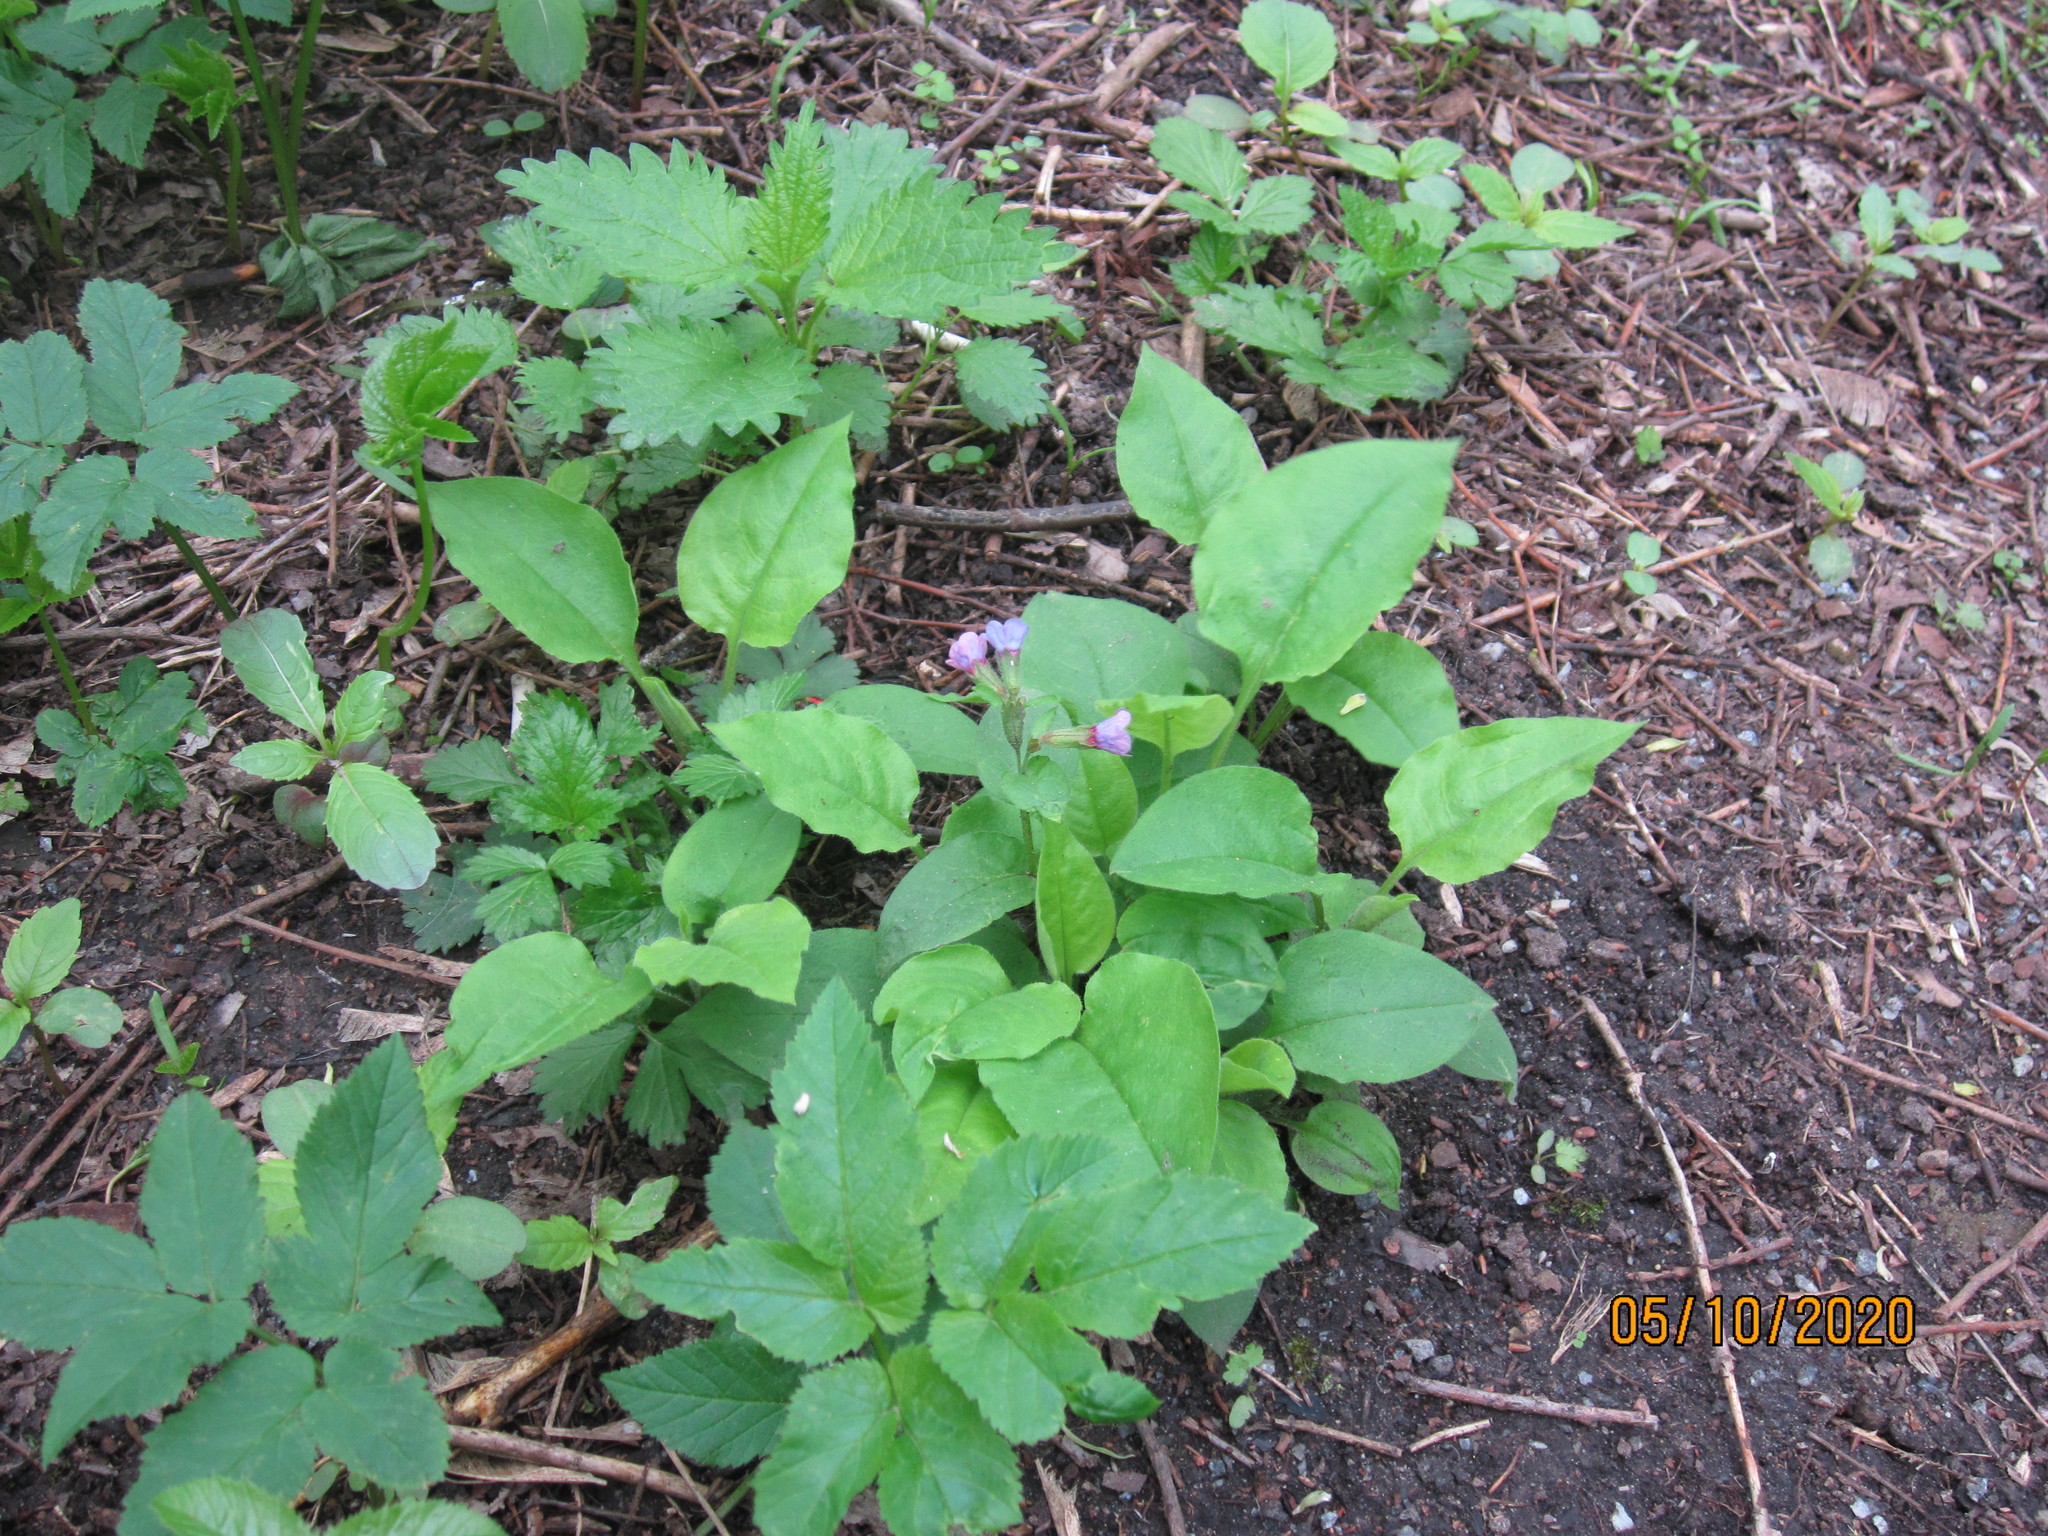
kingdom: Plantae
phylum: Tracheophyta
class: Magnoliopsida
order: Boraginales
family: Boraginaceae
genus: Pulmonaria
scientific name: Pulmonaria obscura
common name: Suffolk lungwort
